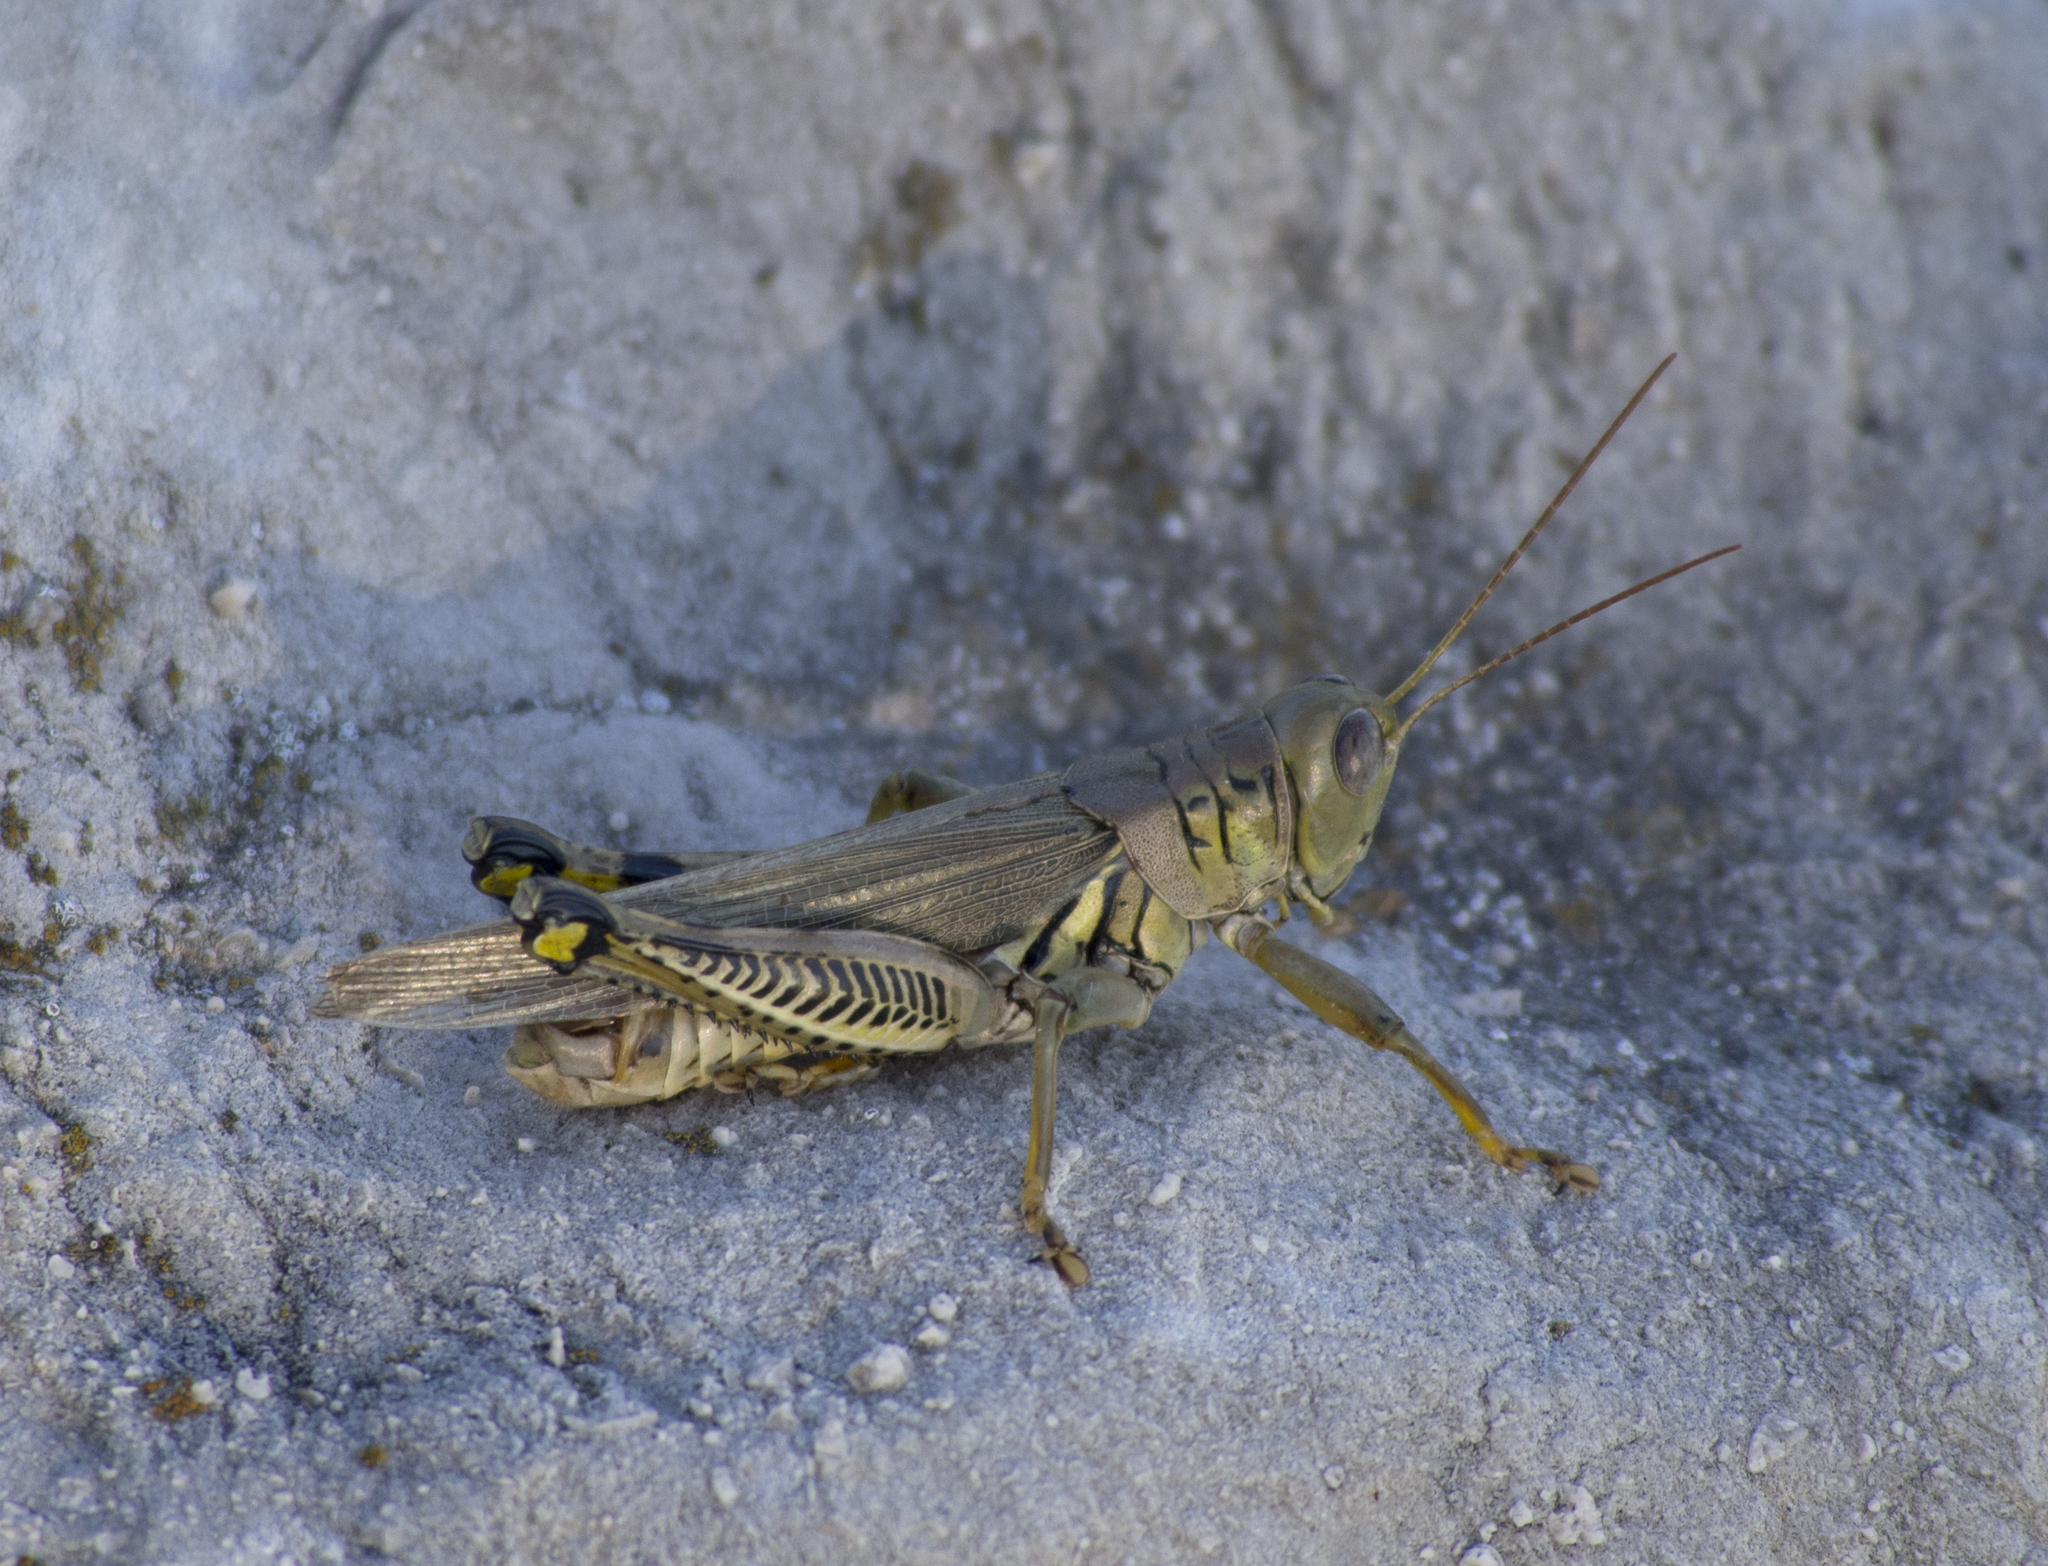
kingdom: Animalia
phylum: Arthropoda
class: Insecta
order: Orthoptera
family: Acrididae
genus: Melanoplus
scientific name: Melanoplus differentialis
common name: Differential grasshopper
